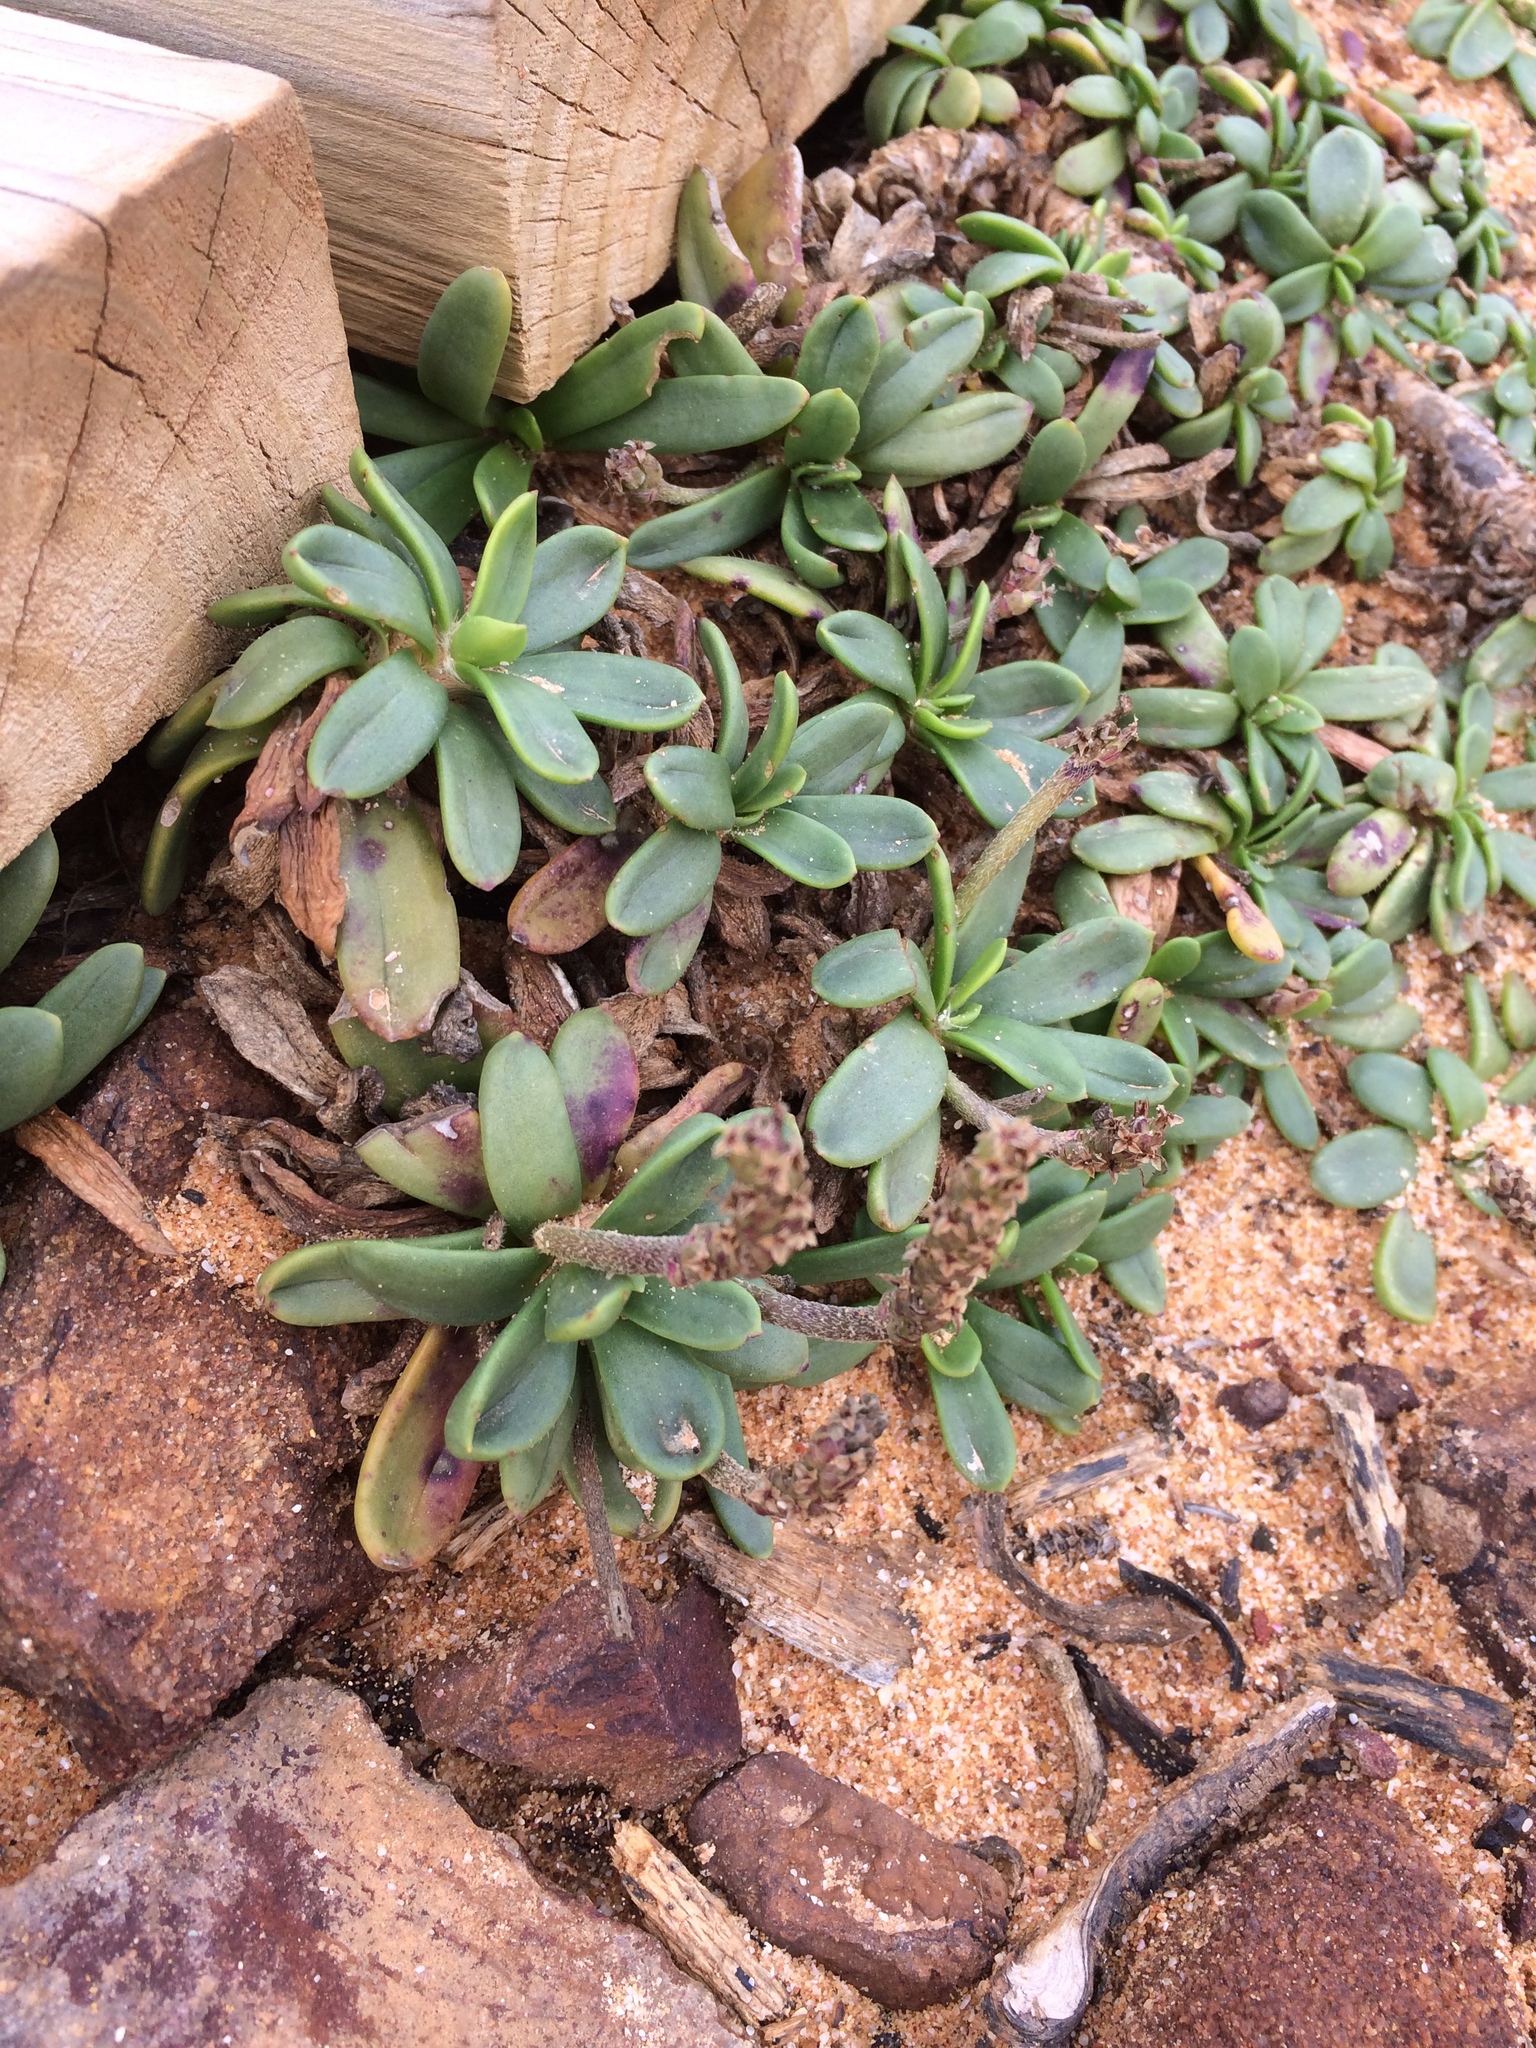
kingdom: Plantae
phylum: Tracheophyta
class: Magnoliopsida
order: Lamiales
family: Plantaginaceae
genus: Plantago
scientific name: Plantago carnosa
